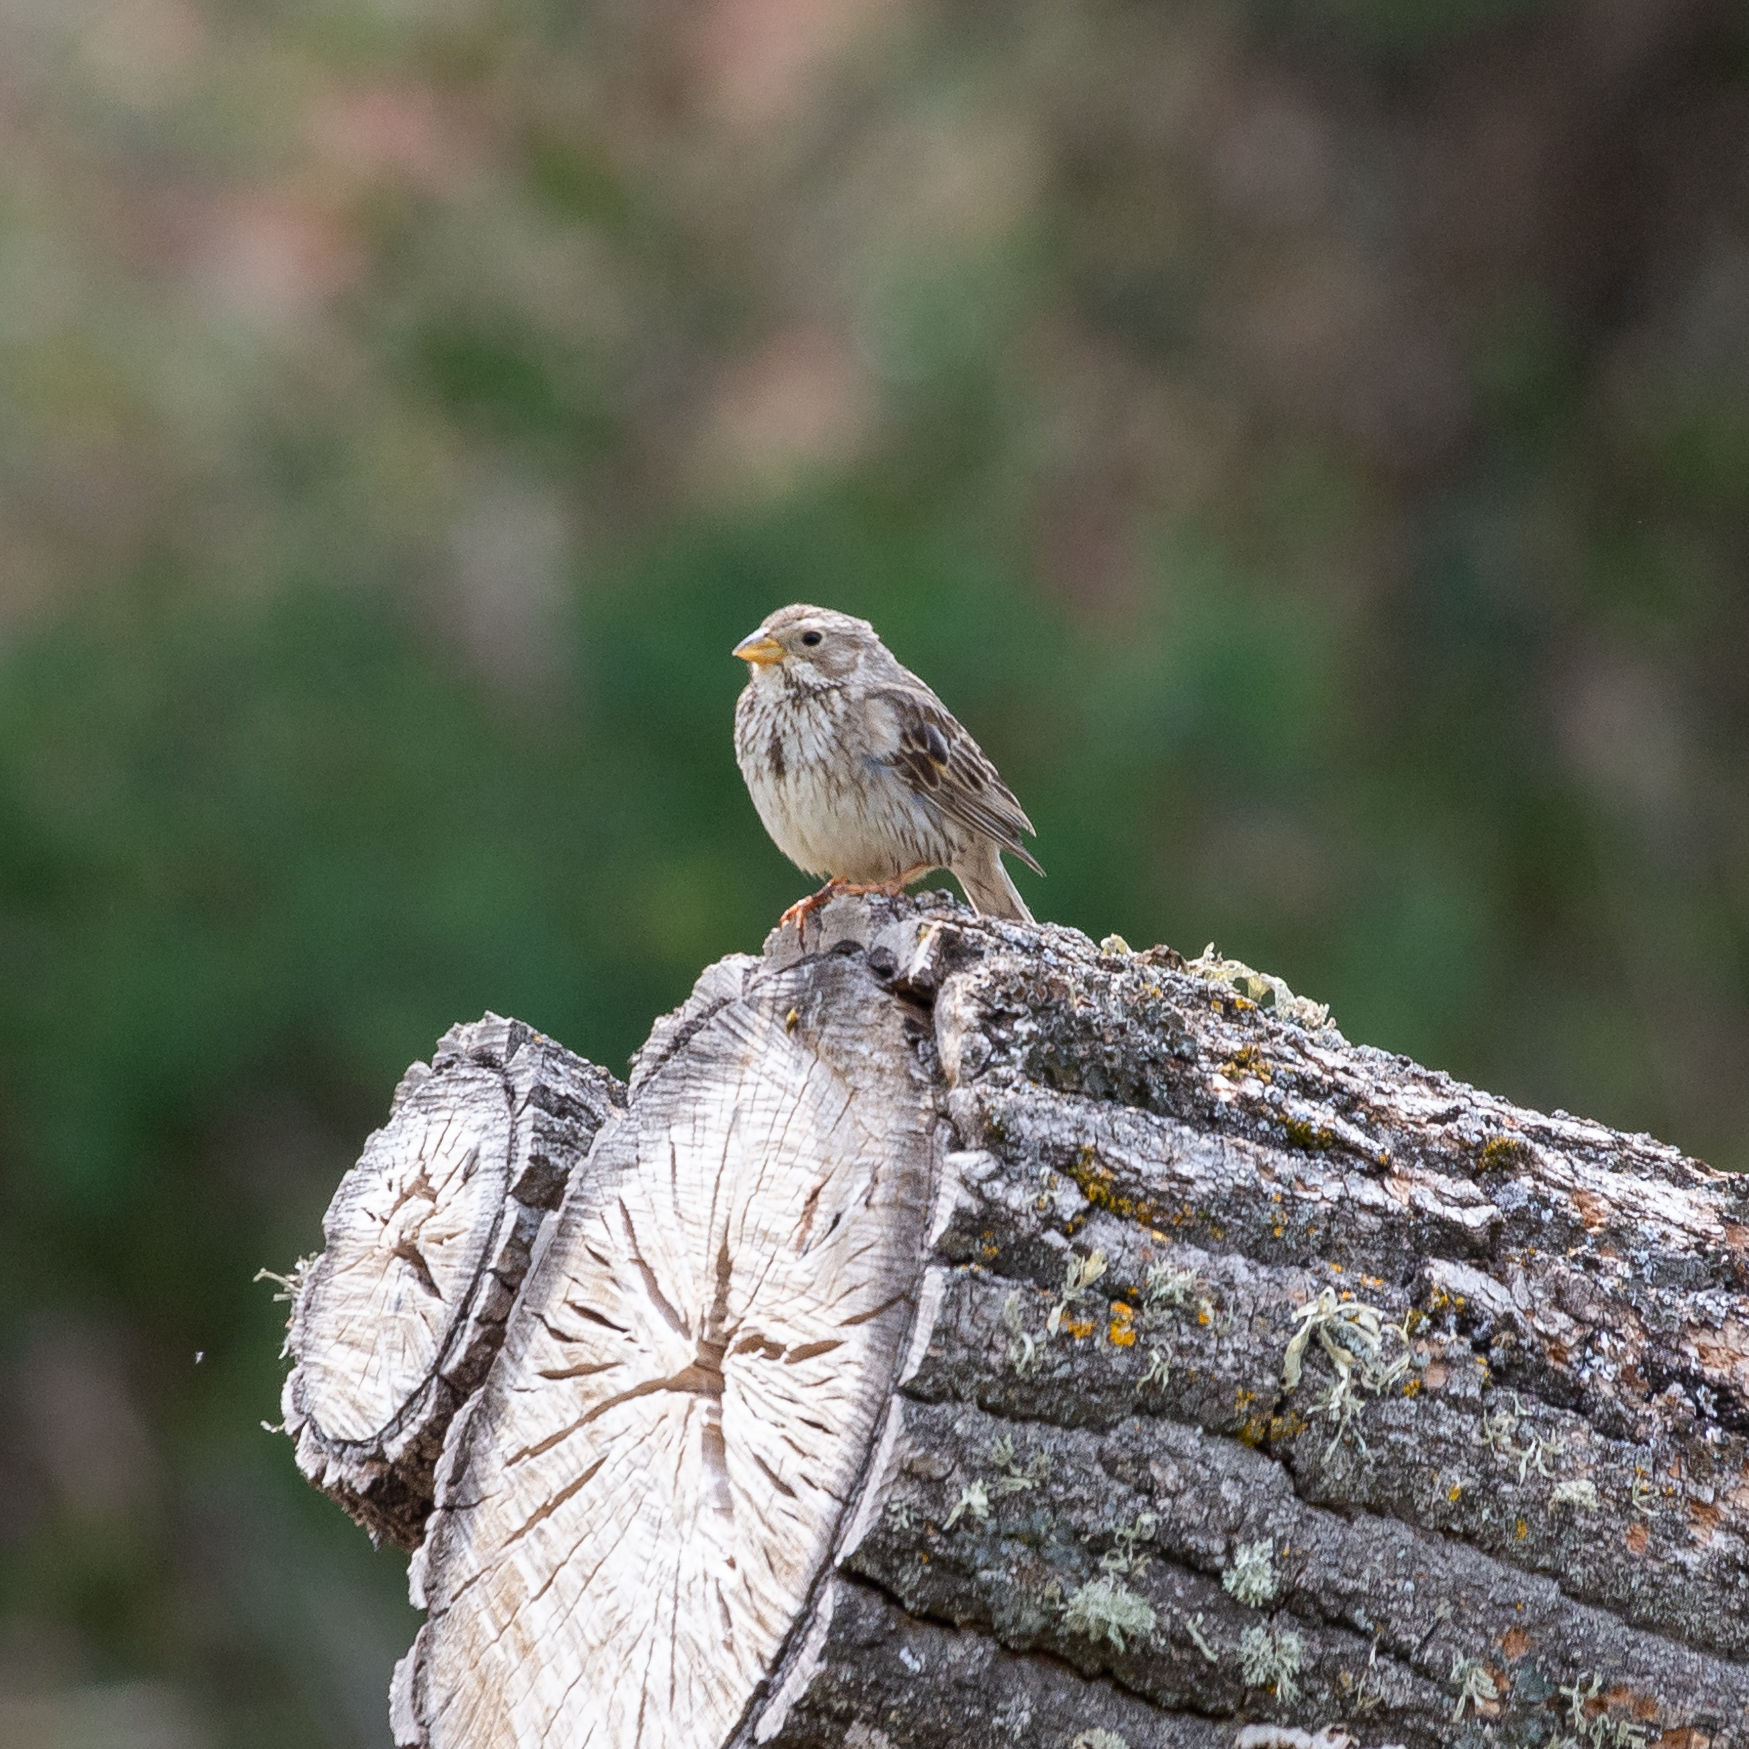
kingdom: Animalia
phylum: Chordata
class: Aves
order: Passeriformes
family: Emberizidae
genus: Emberiza
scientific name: Emberiza calandra
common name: Corn bunting
